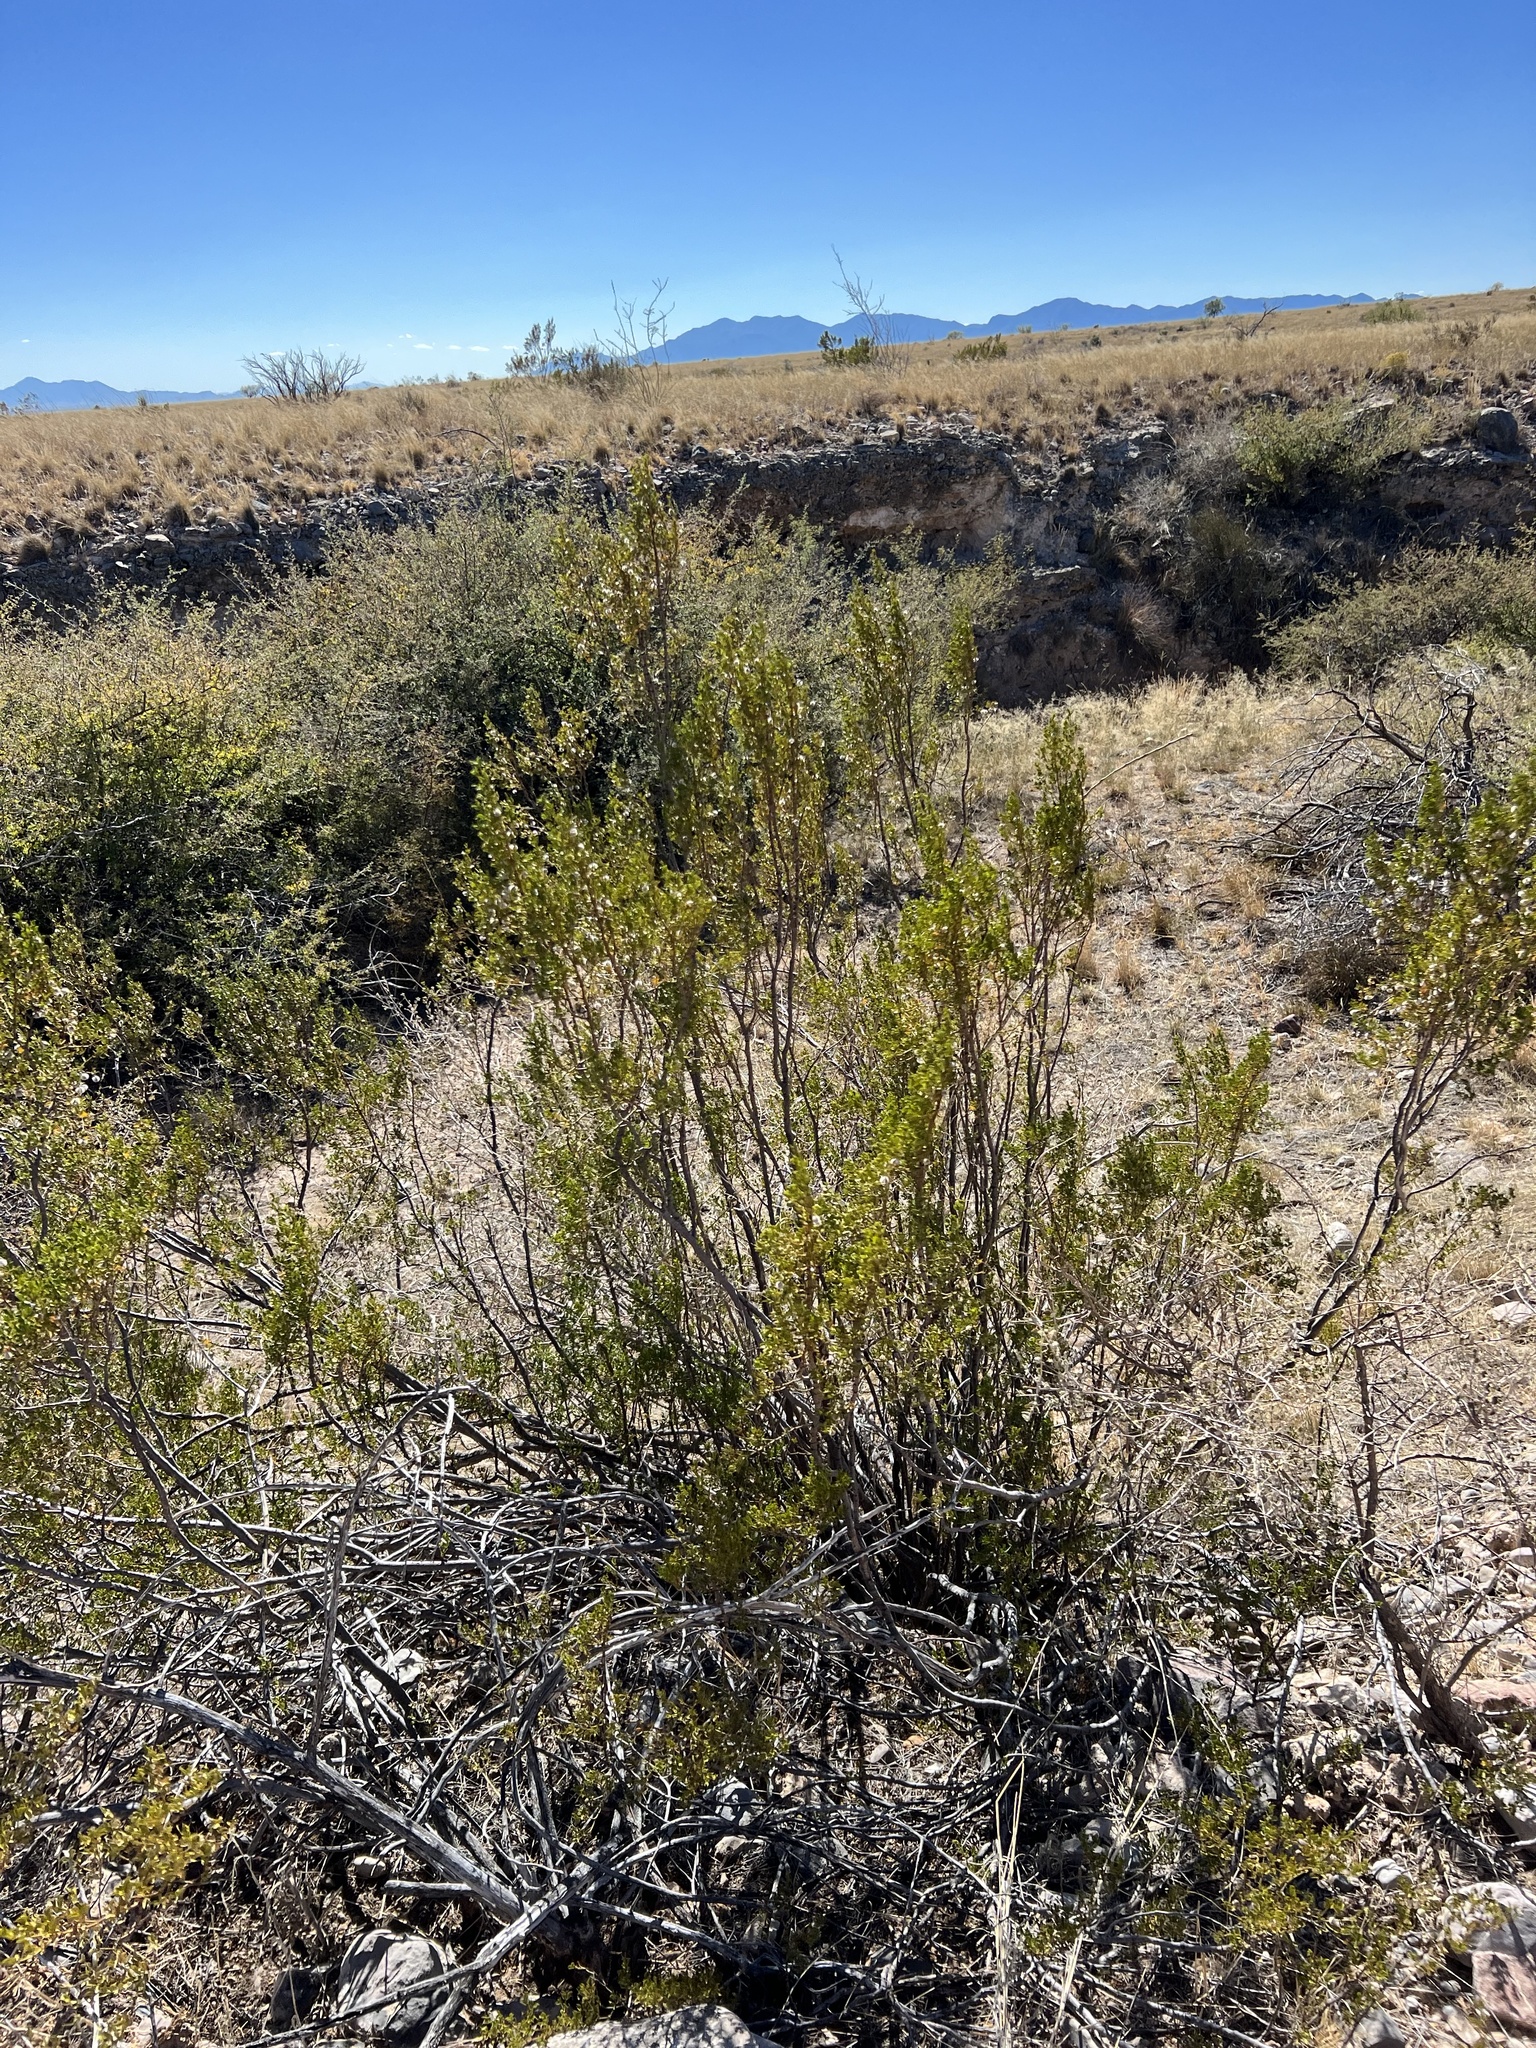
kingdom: Plantae
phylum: Tracheophyta
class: Magnoliopsida
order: Zygophyllales
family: Zygophyllaceae
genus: Larrea
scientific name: Larrea tridentata
